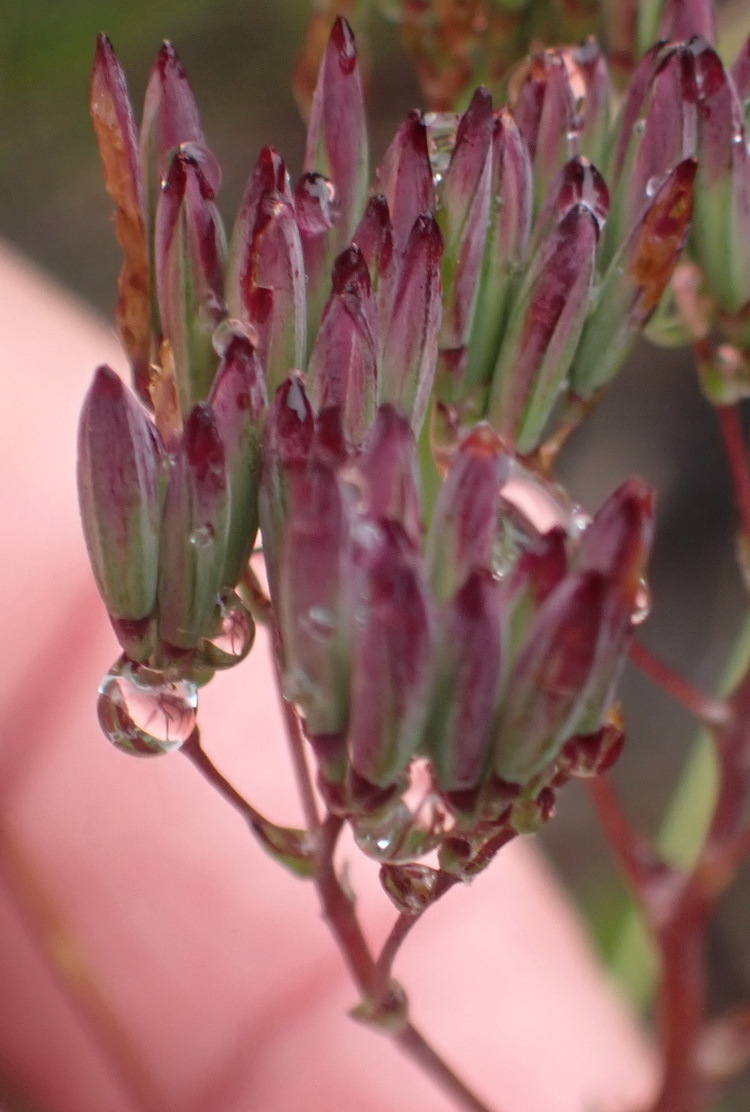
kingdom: Plantae
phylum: Tracheophyta
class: Magnoliopsida
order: Asterales
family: Asteraceae
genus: Corymbium
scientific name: Corymbium glabrum
